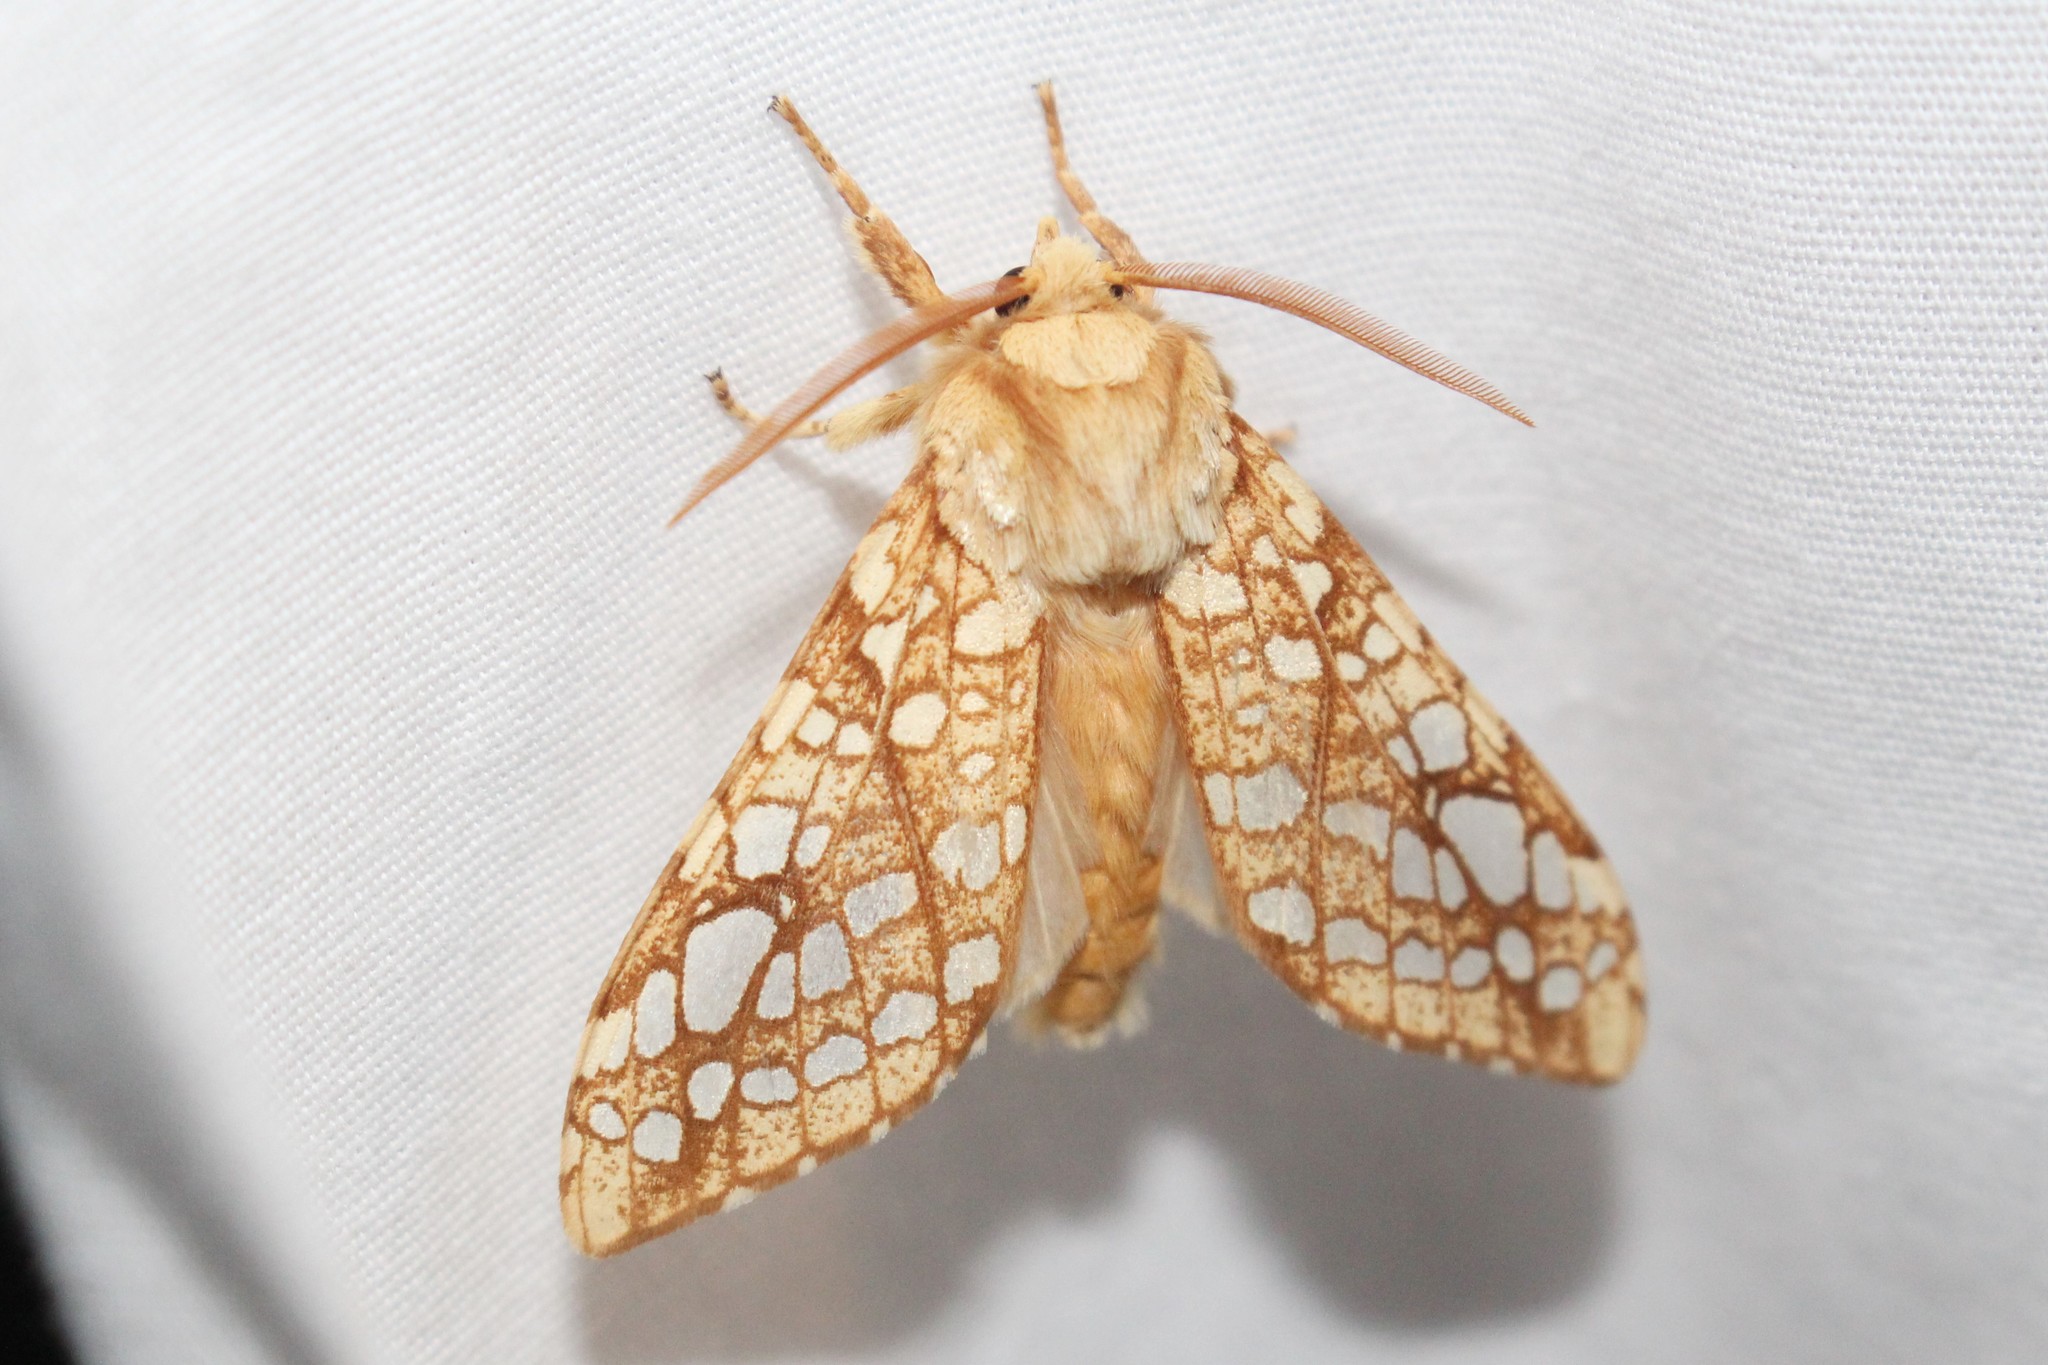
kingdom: Animalia
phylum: Arthropoda
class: Insecta
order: Lepidoptera
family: Erebidae
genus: Lophocampa
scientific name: Lophocampa caryae
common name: Hickory tussock moth
